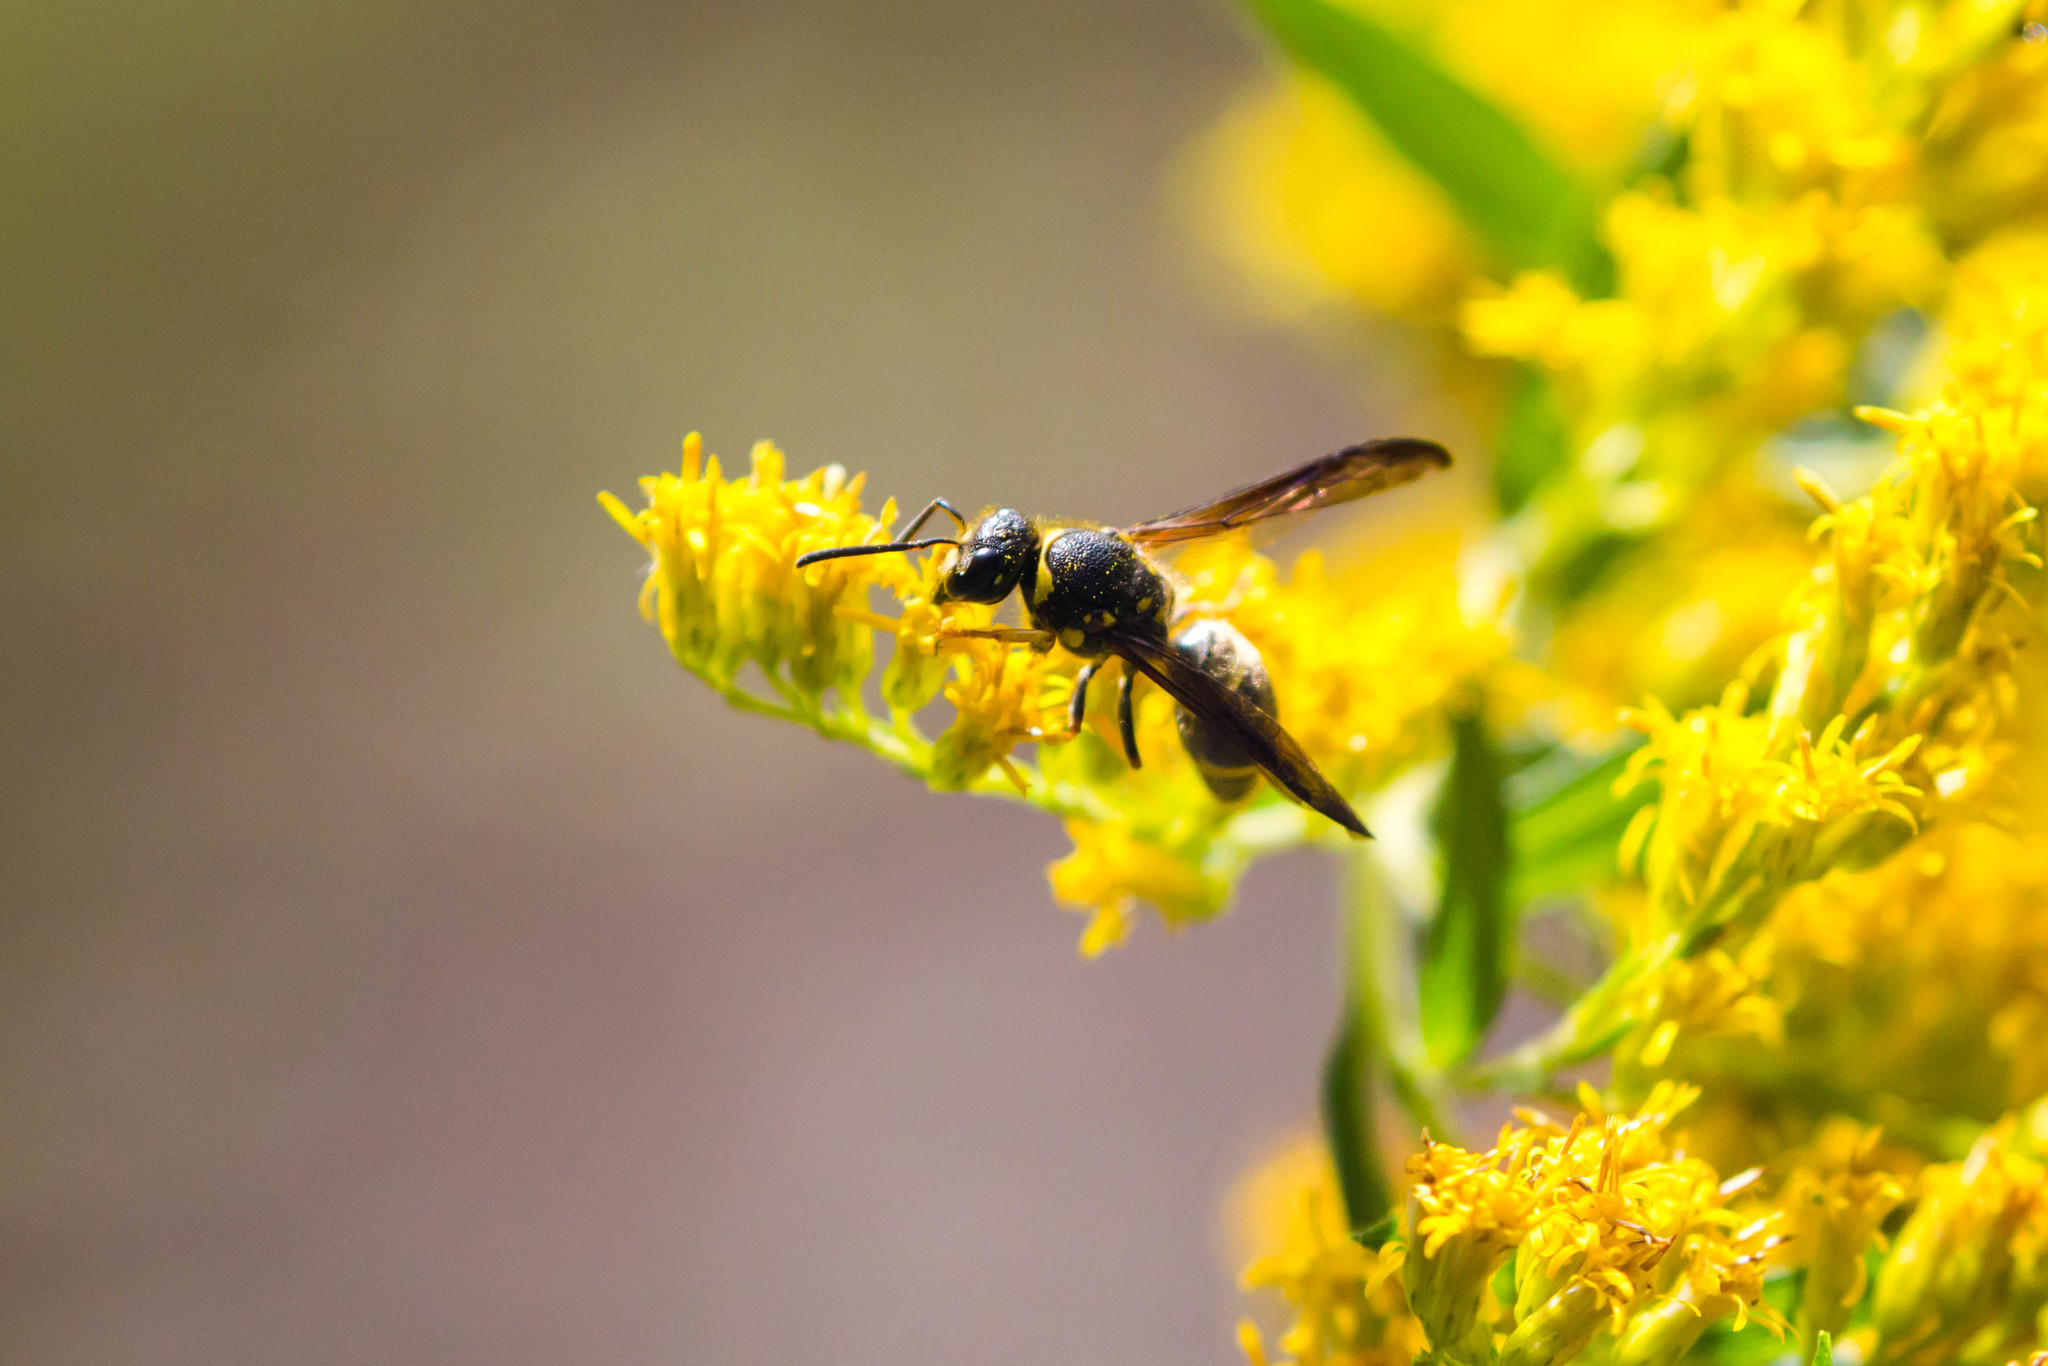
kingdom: Animalia
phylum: Arthropoda
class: Insecta
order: Hymenoptera
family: Vespidae
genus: Ancistrocerus
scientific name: Ancistrocerus campestris
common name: Smiling mason wasp
